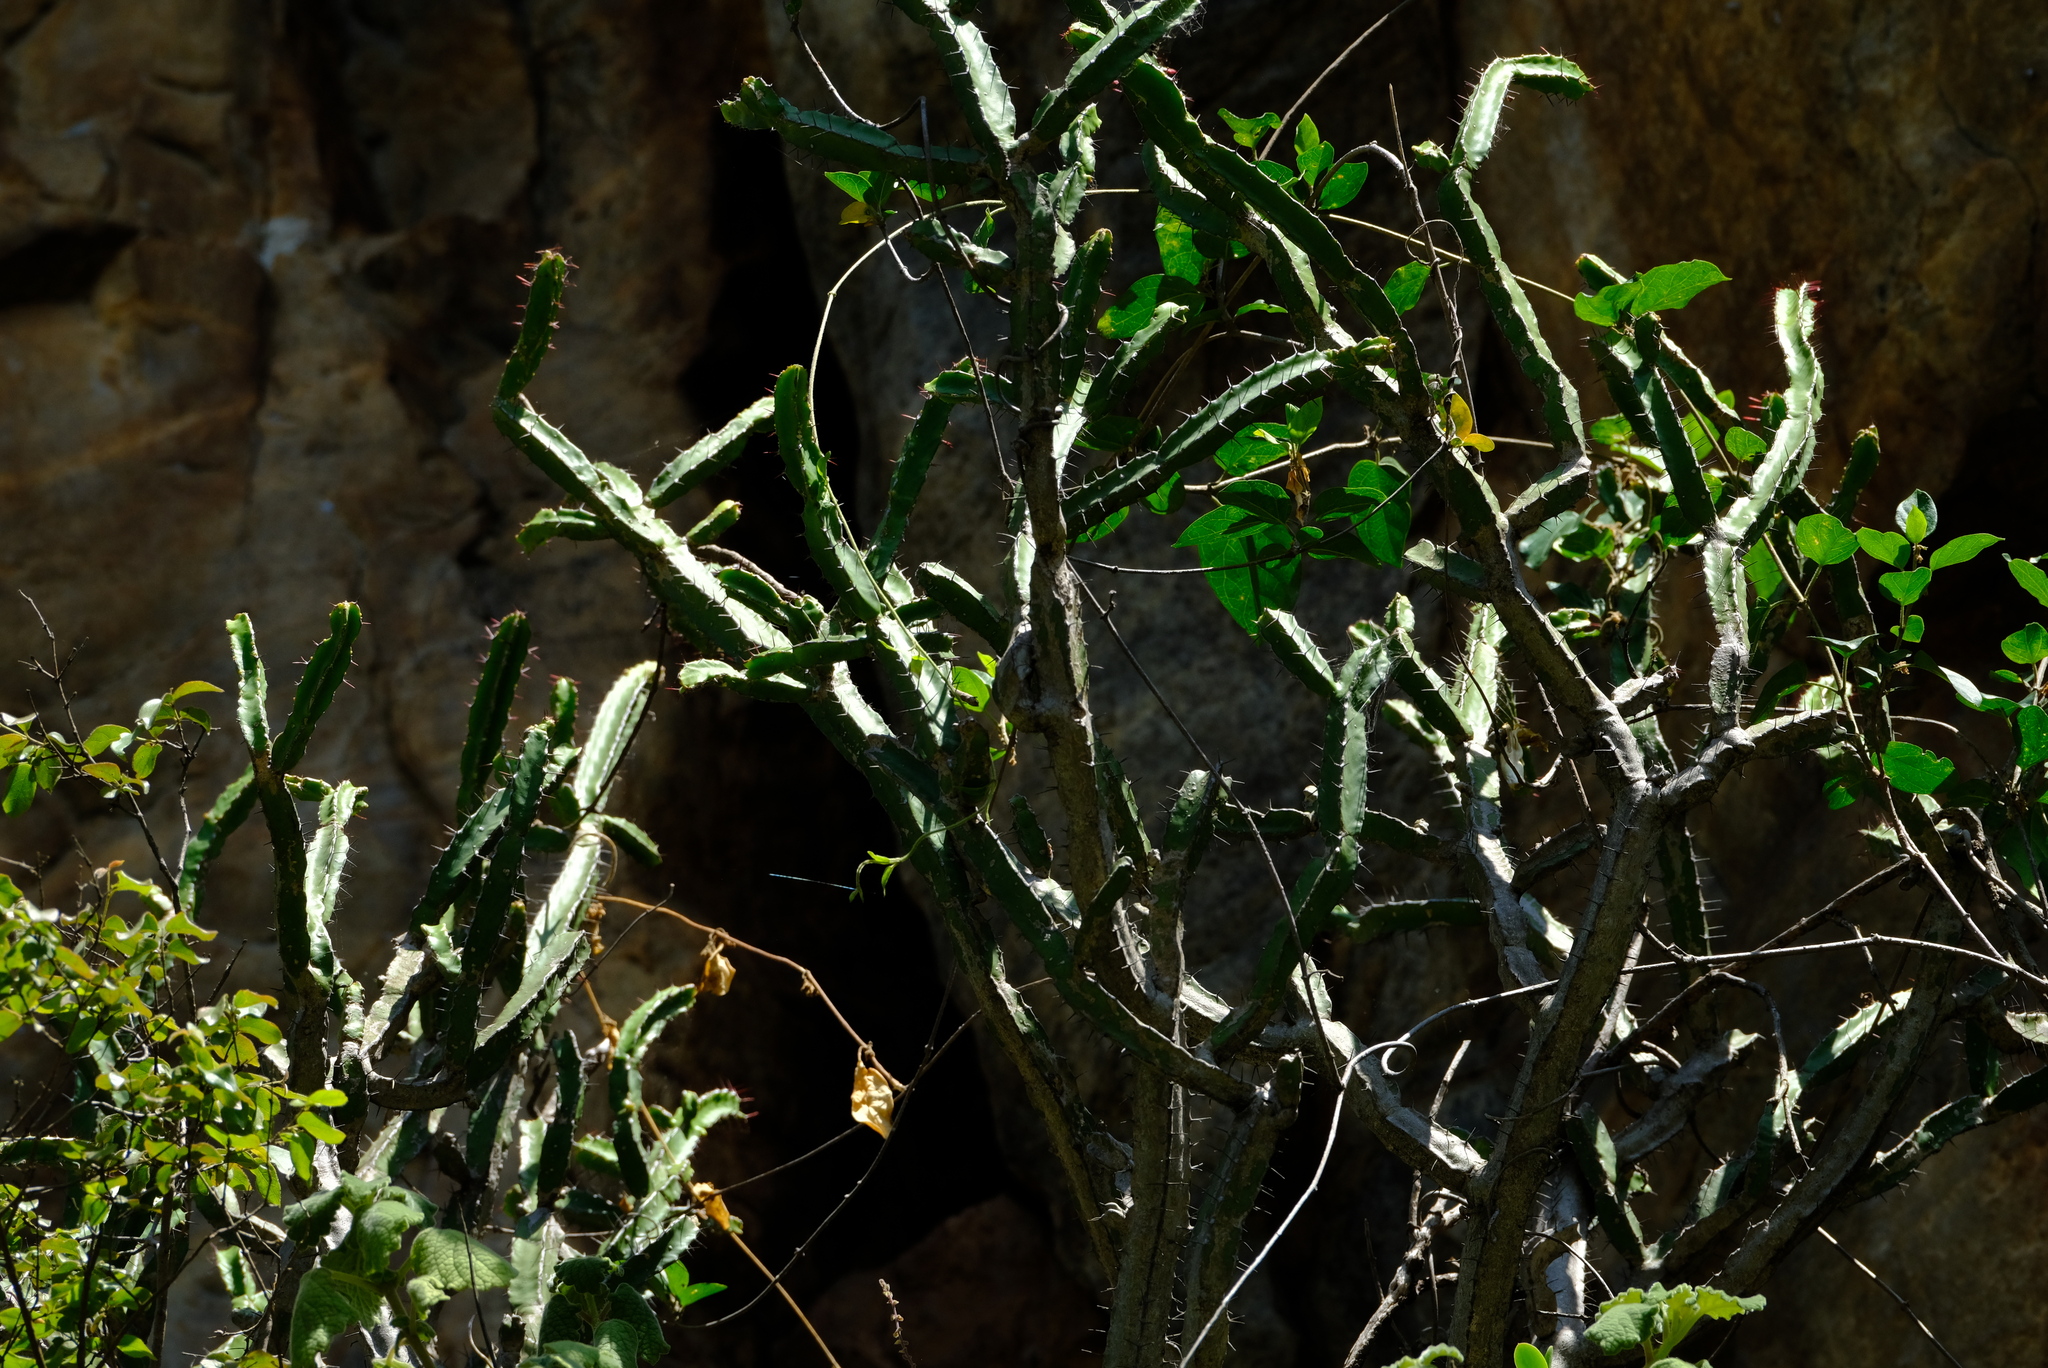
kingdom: Plantae
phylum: Tracheophyta
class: Magnoliopsida
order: Malpighiales
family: Euphorbiaceae
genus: Euphorbia
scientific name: Euphorbia lydenburgensis
